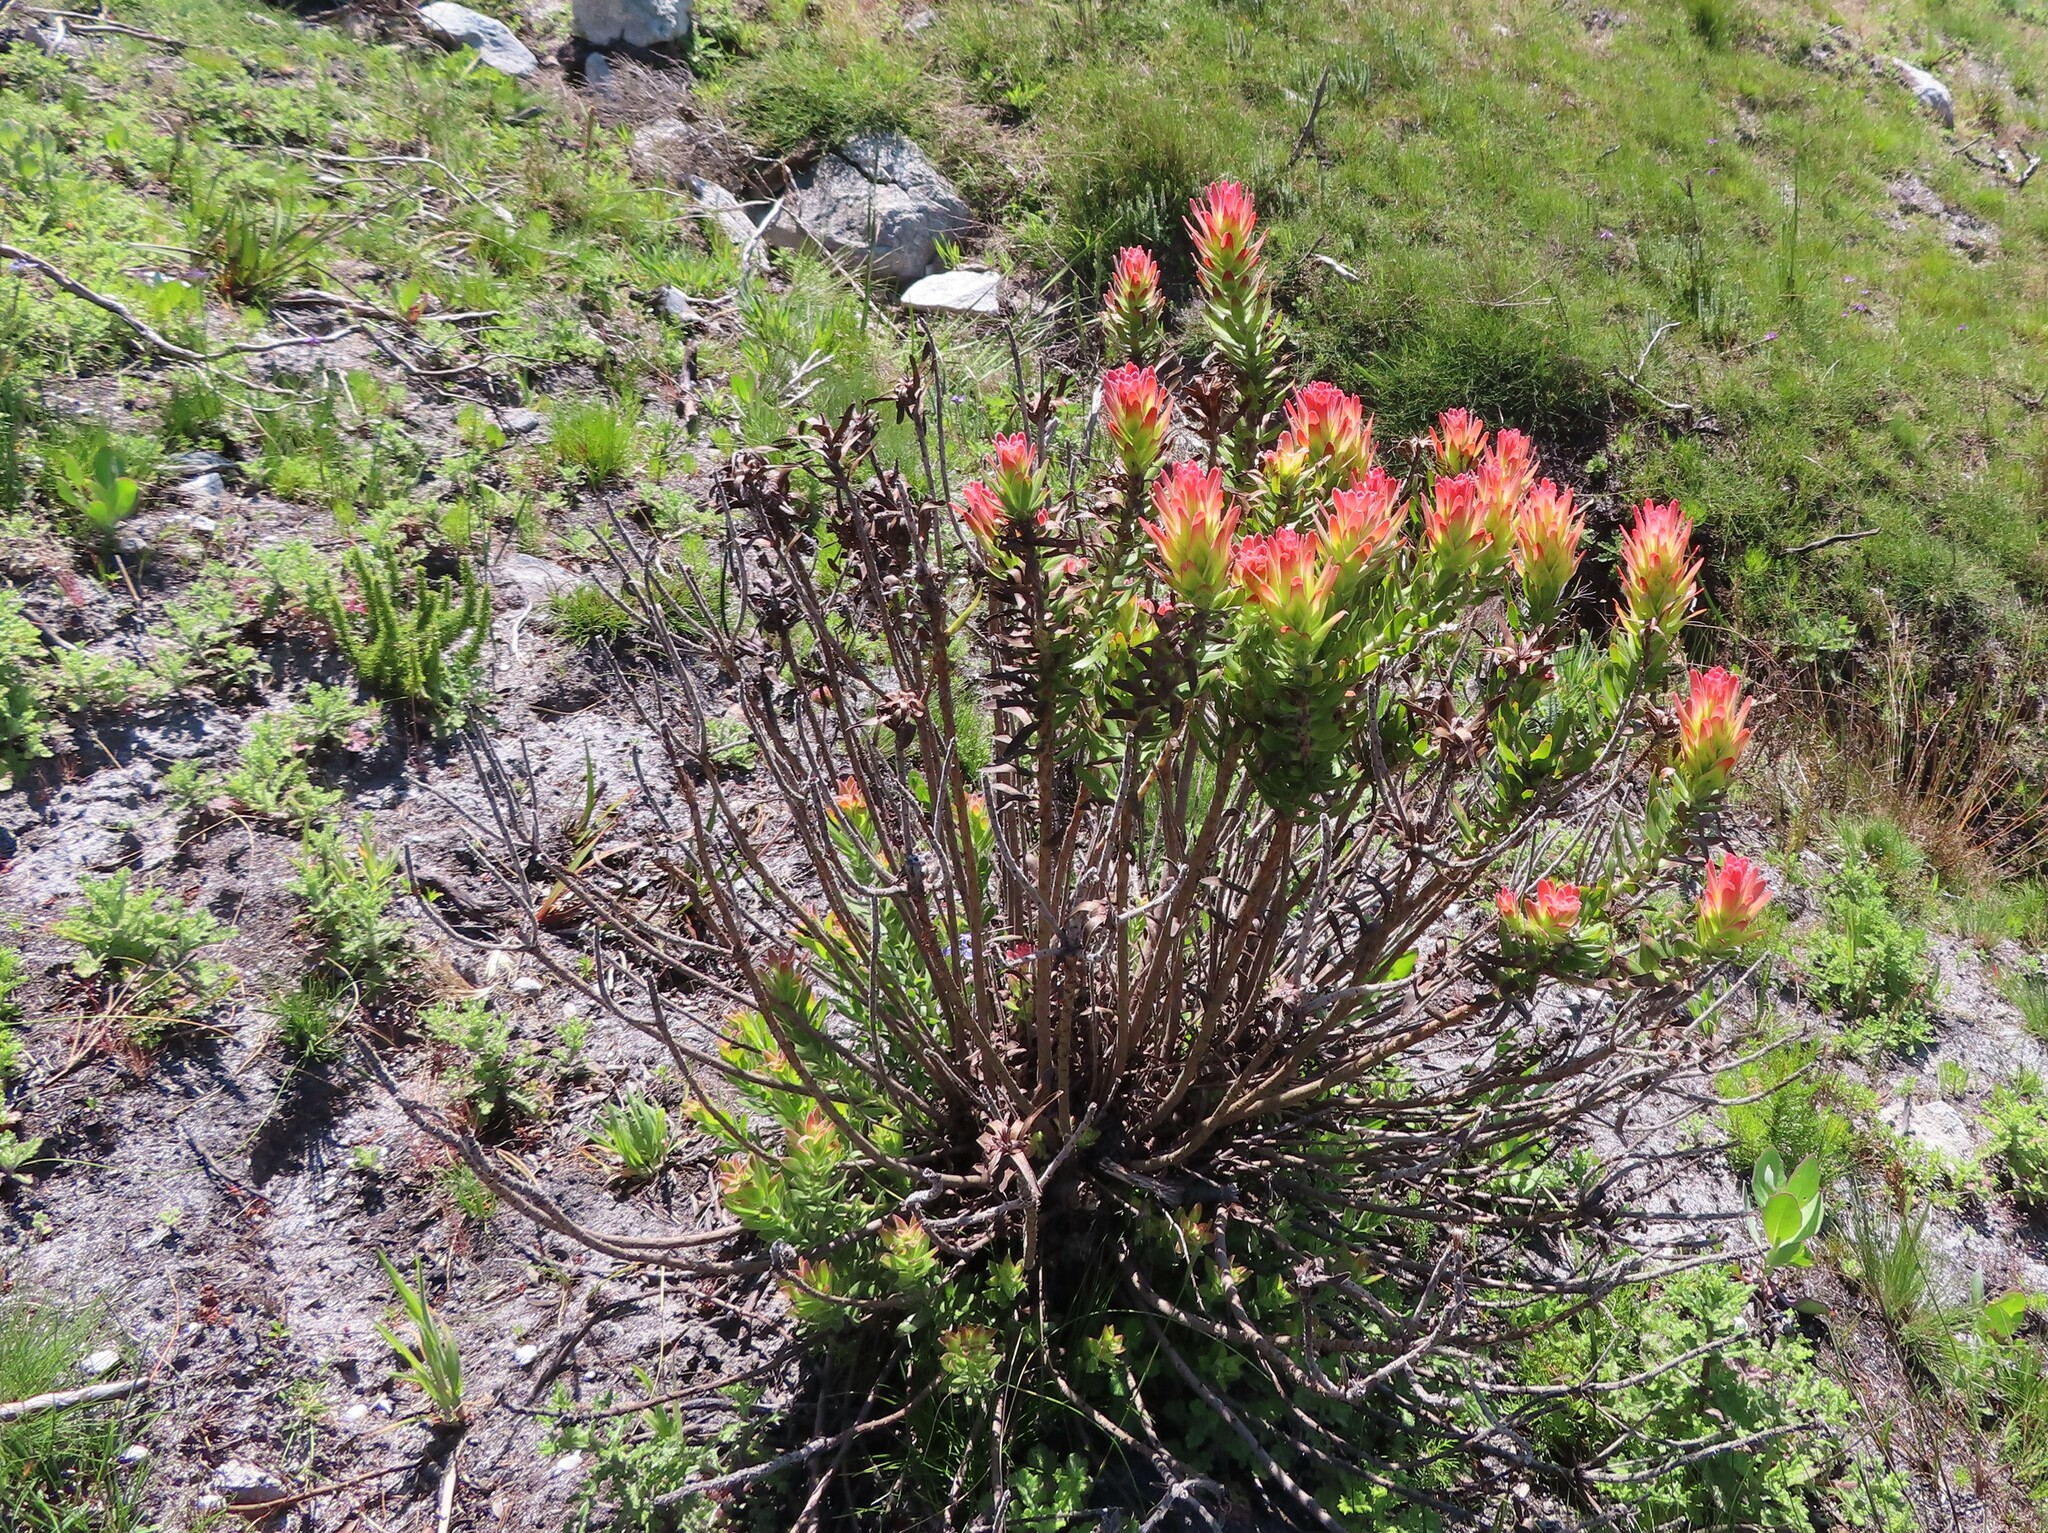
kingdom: Plantae
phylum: Tracheophyta
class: Magnoliopsida
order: Proteales
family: Proteaceae
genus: Mimetes
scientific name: Mimetes cucullatus
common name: Common pagoda
